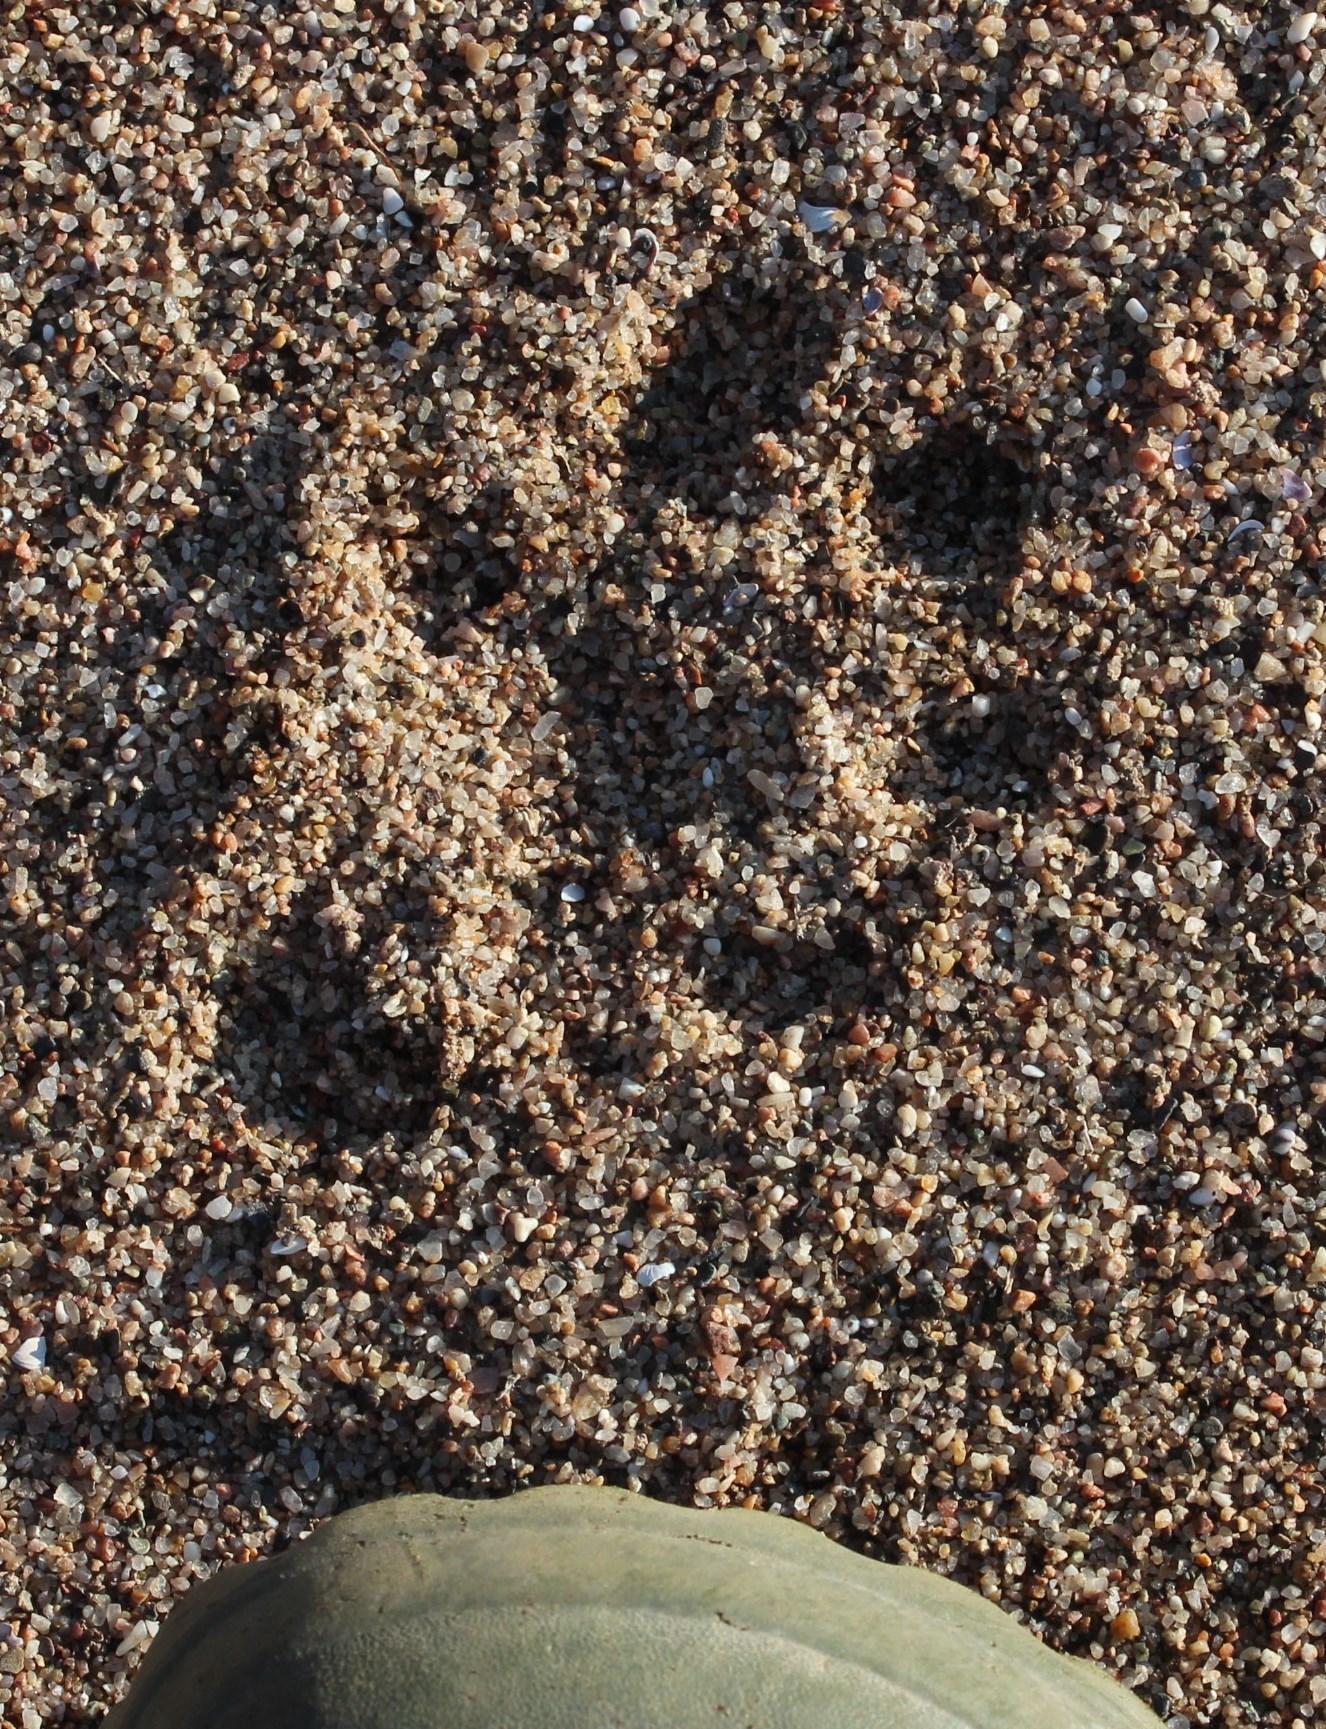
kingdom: Animalia
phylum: Chordata
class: Mammalia
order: Carnivora
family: Mustelidae
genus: Aonyx
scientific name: Aonyx capensis
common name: African clawless otter
